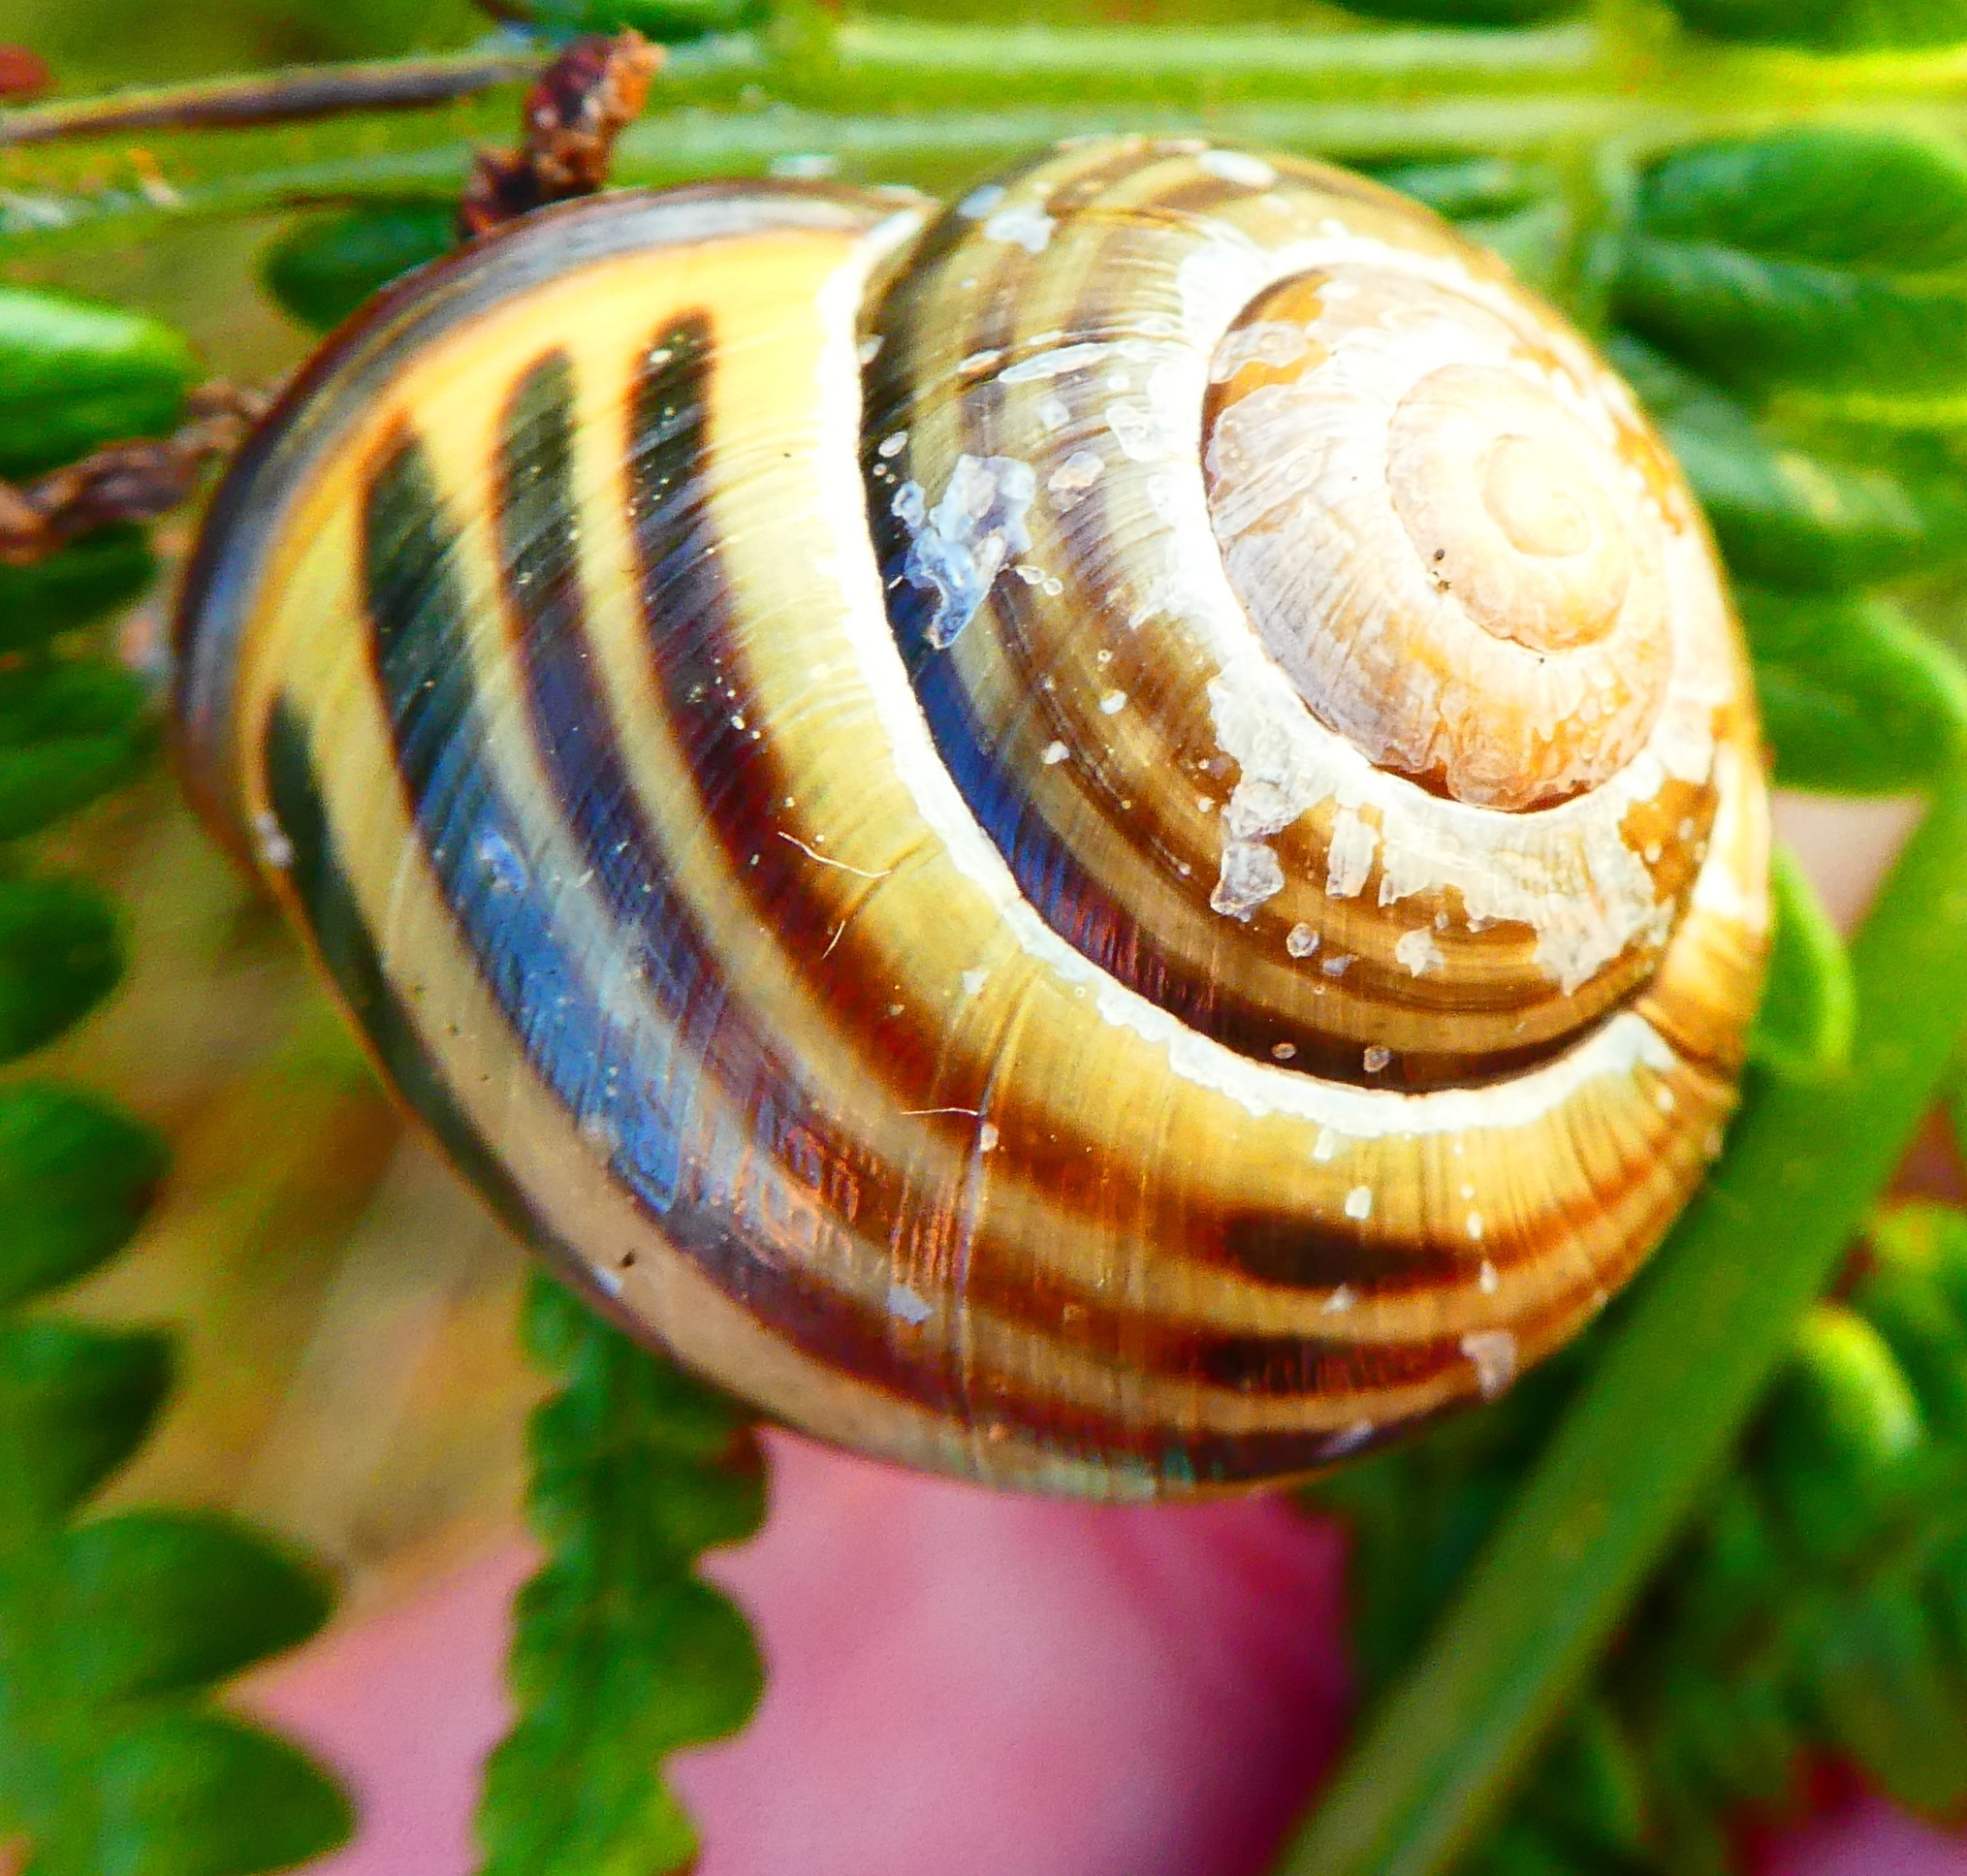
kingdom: Animalia
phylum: Mollusca
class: Gastropoda
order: Stylommatophora
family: Helicidae
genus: Cepaea
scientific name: Cepaea nemoralis
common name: Grovesnail
